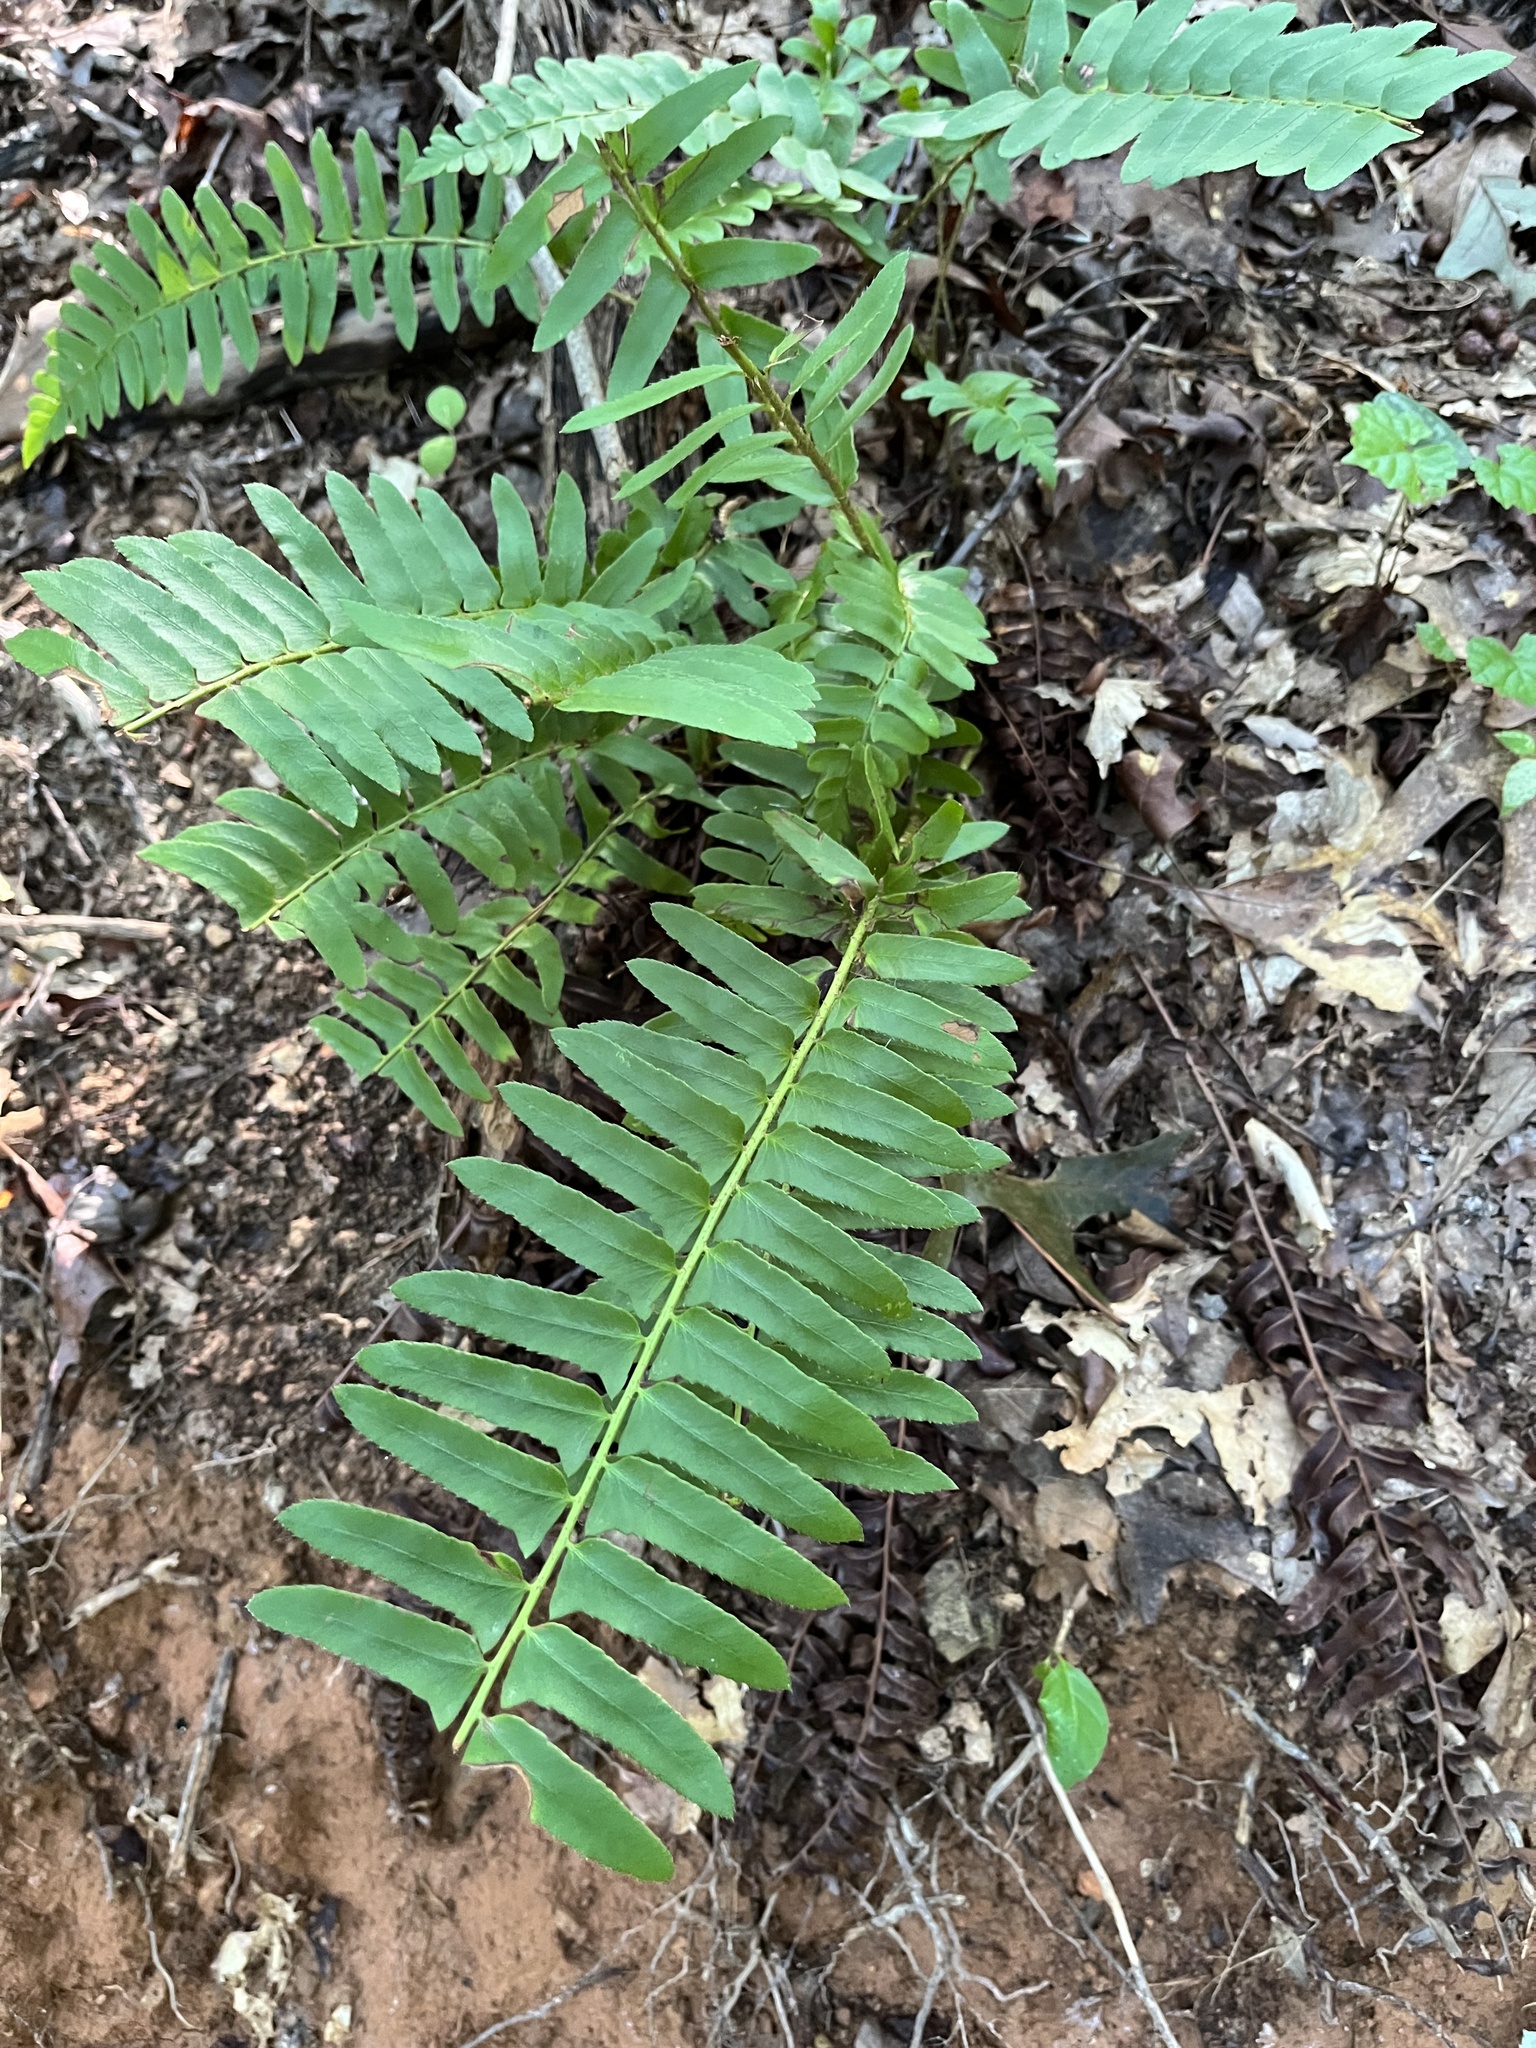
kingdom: Plantae
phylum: Tracheophyta
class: Polypodiopsida
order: Polypodiales
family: Dryopteridaceae
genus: Polystichum
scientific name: Polystichum acrostichoides
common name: Christmas fern
